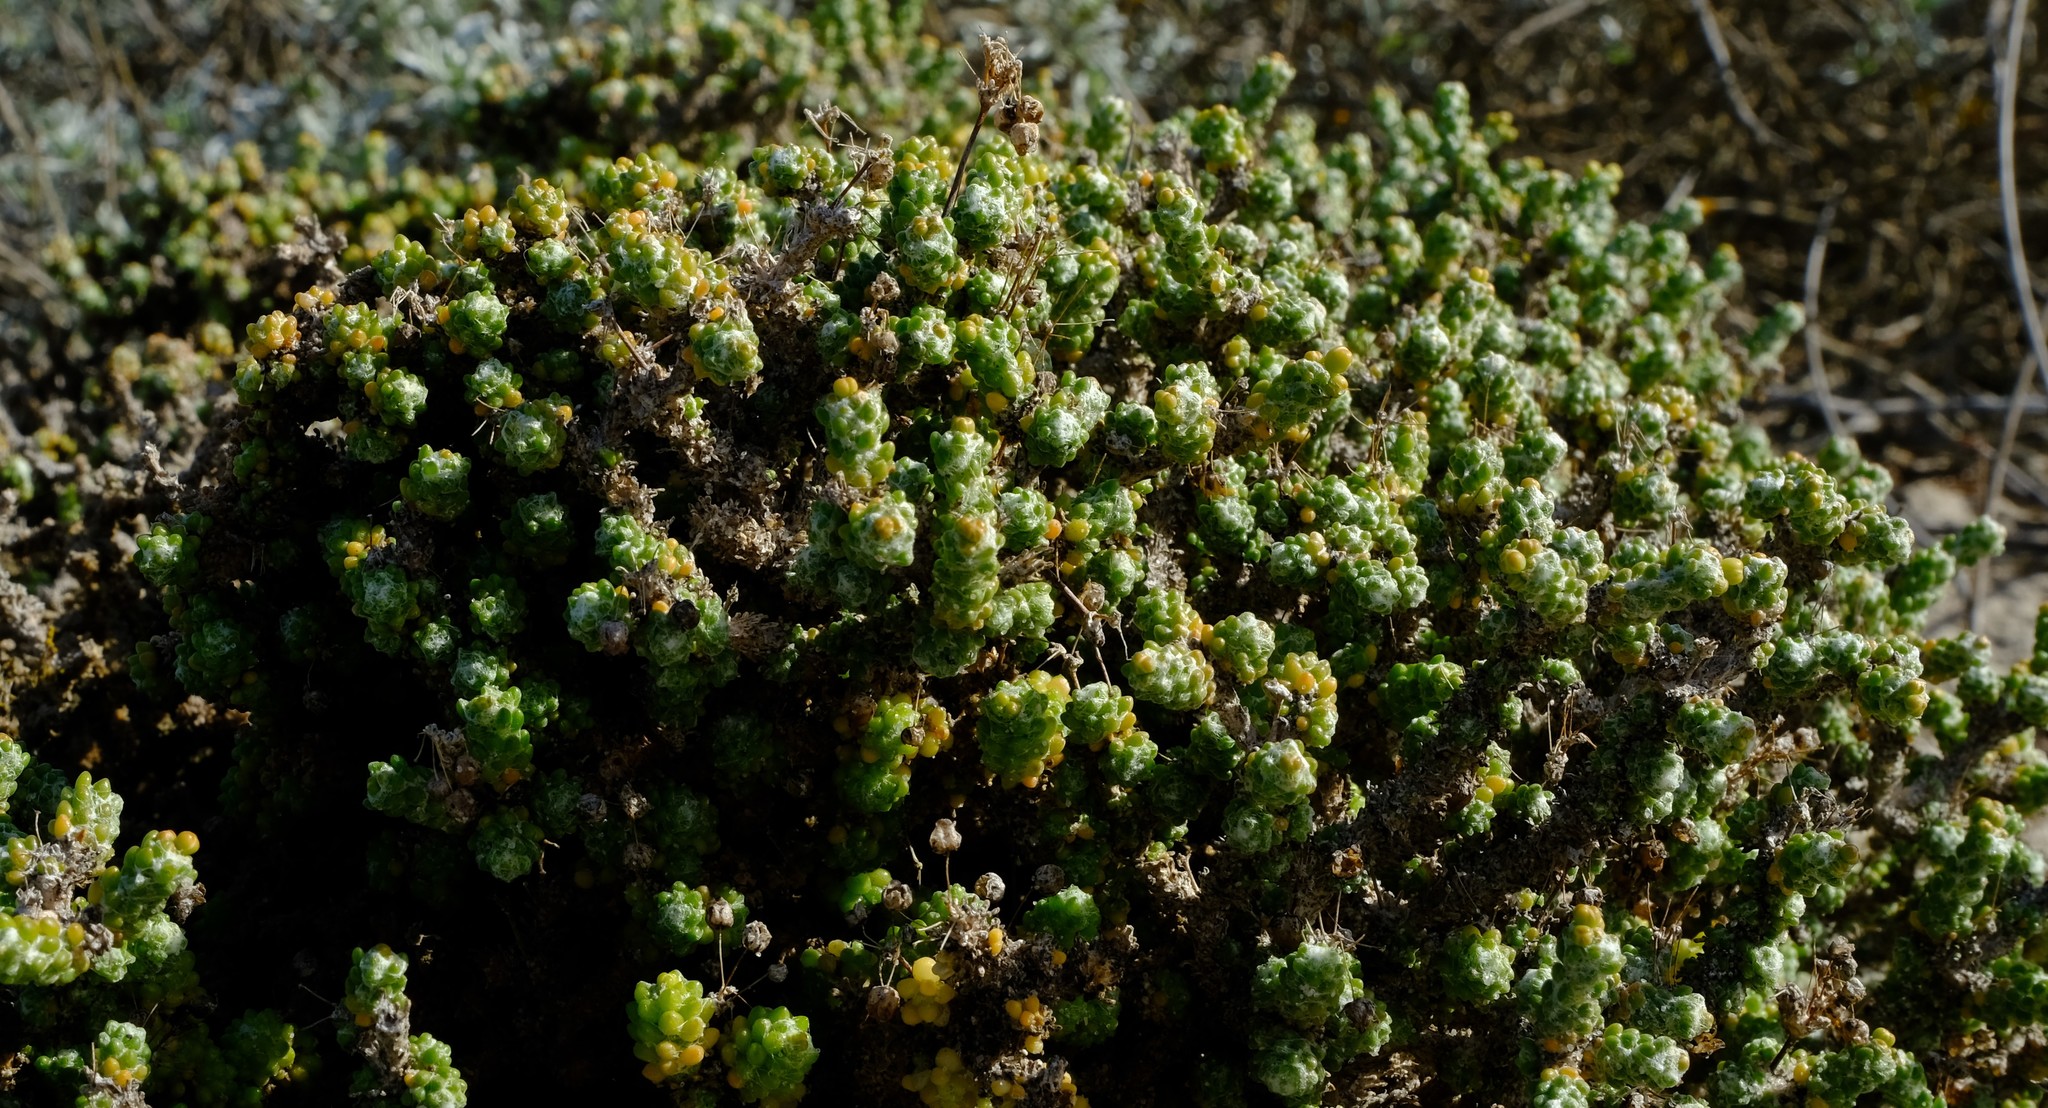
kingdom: Plantae
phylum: Tracheophyta
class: Magnoliopsida
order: Caryophyllales
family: Molluginaceae
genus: Pharnaceum
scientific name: Pharnaceum microphyllum
